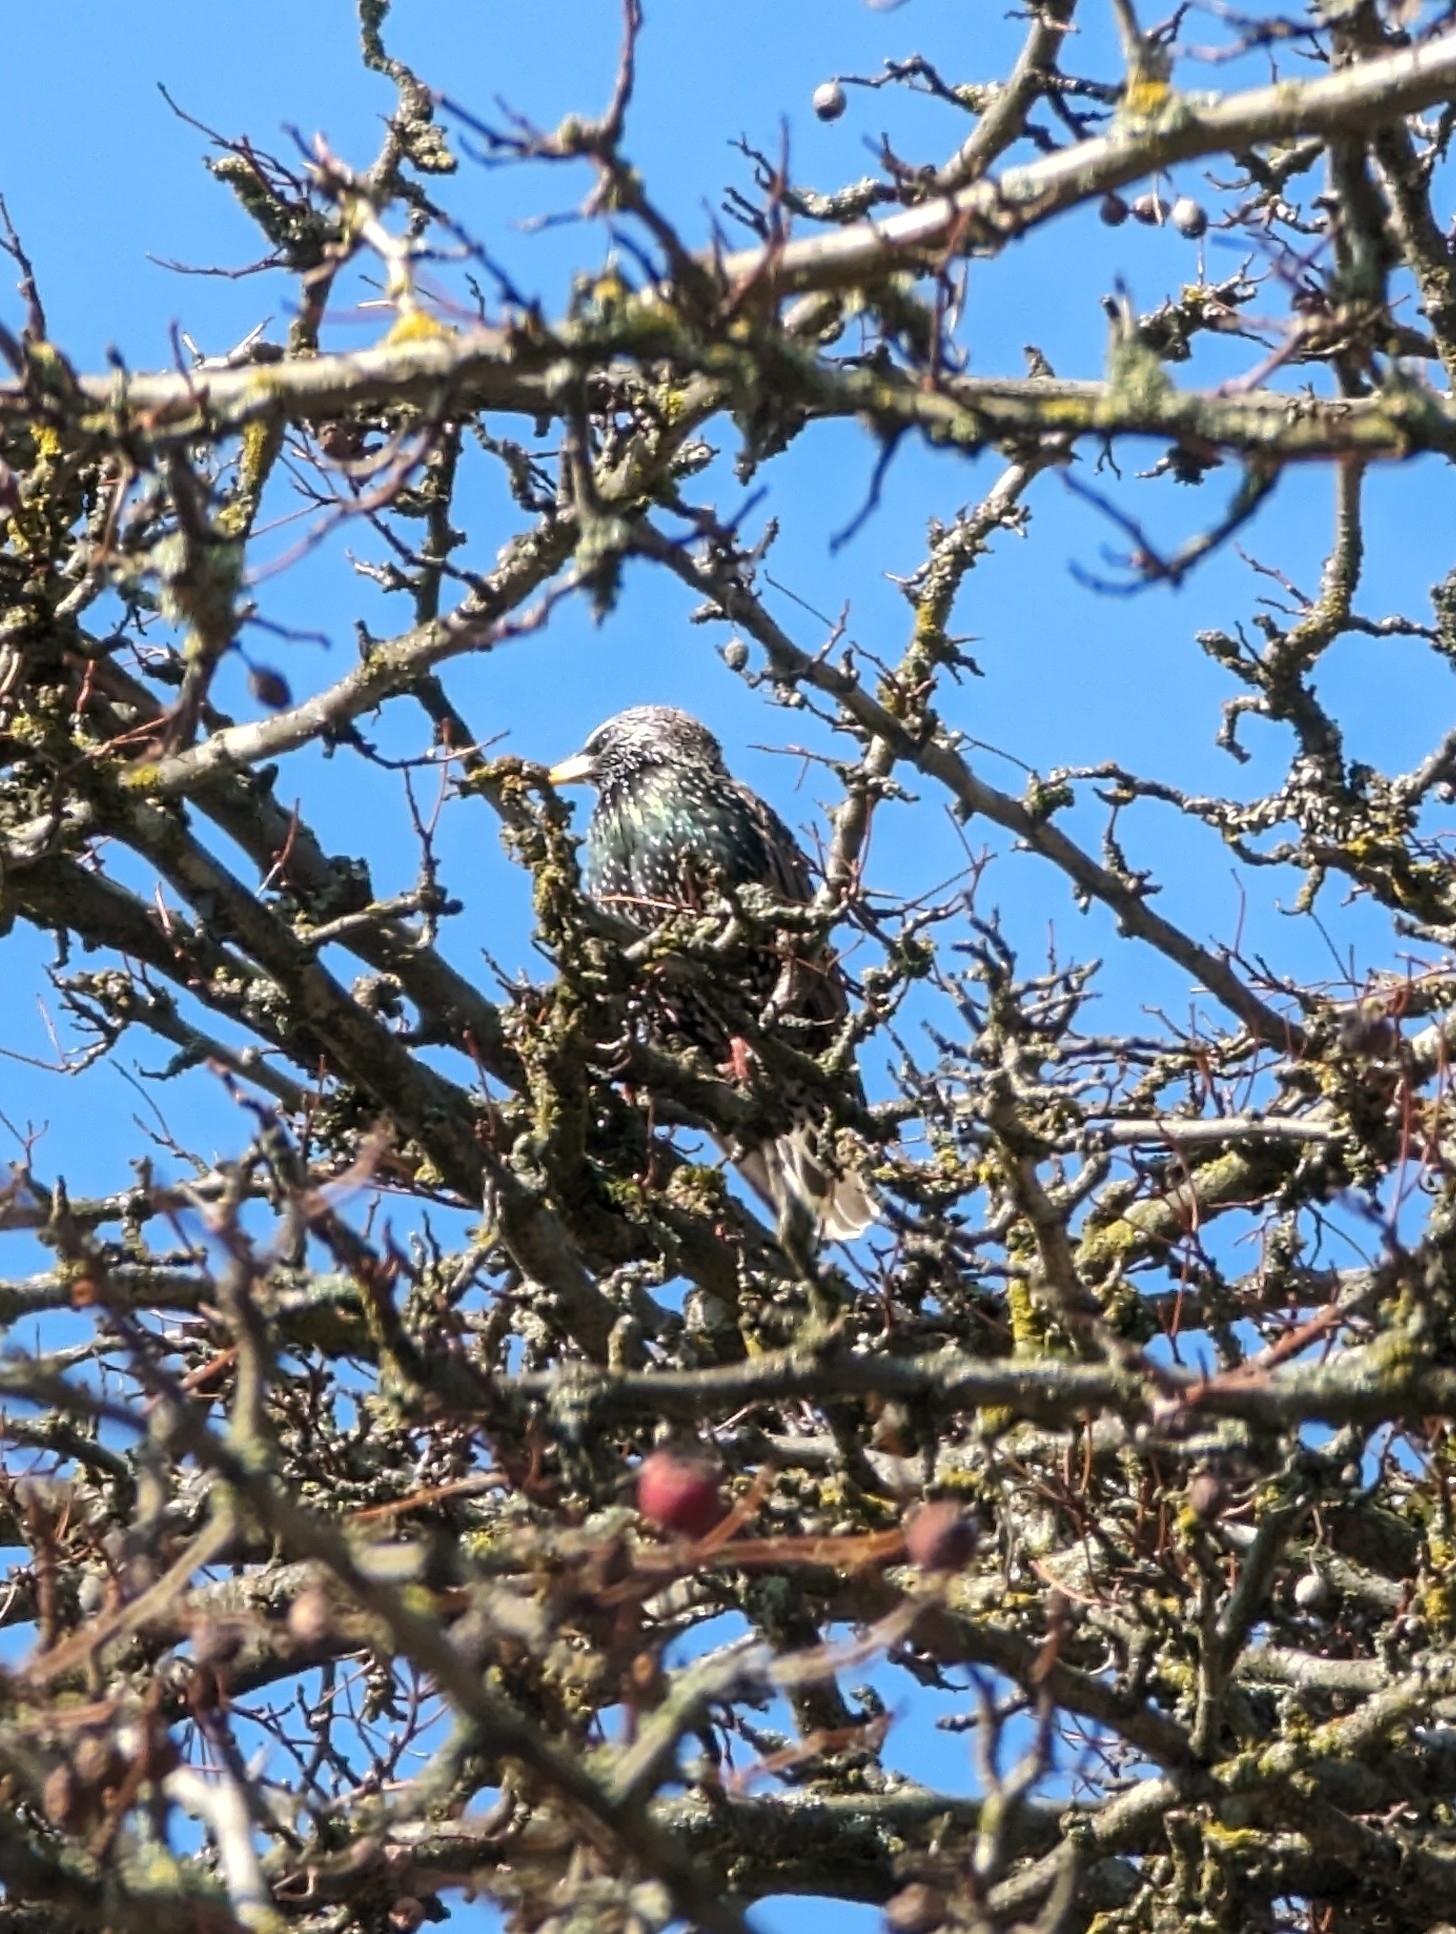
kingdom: Animalia
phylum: Chordata
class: Aves
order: Passeriformes
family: Sturnidae
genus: Sturnus
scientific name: Sturnus vulgaris
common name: Common starling
